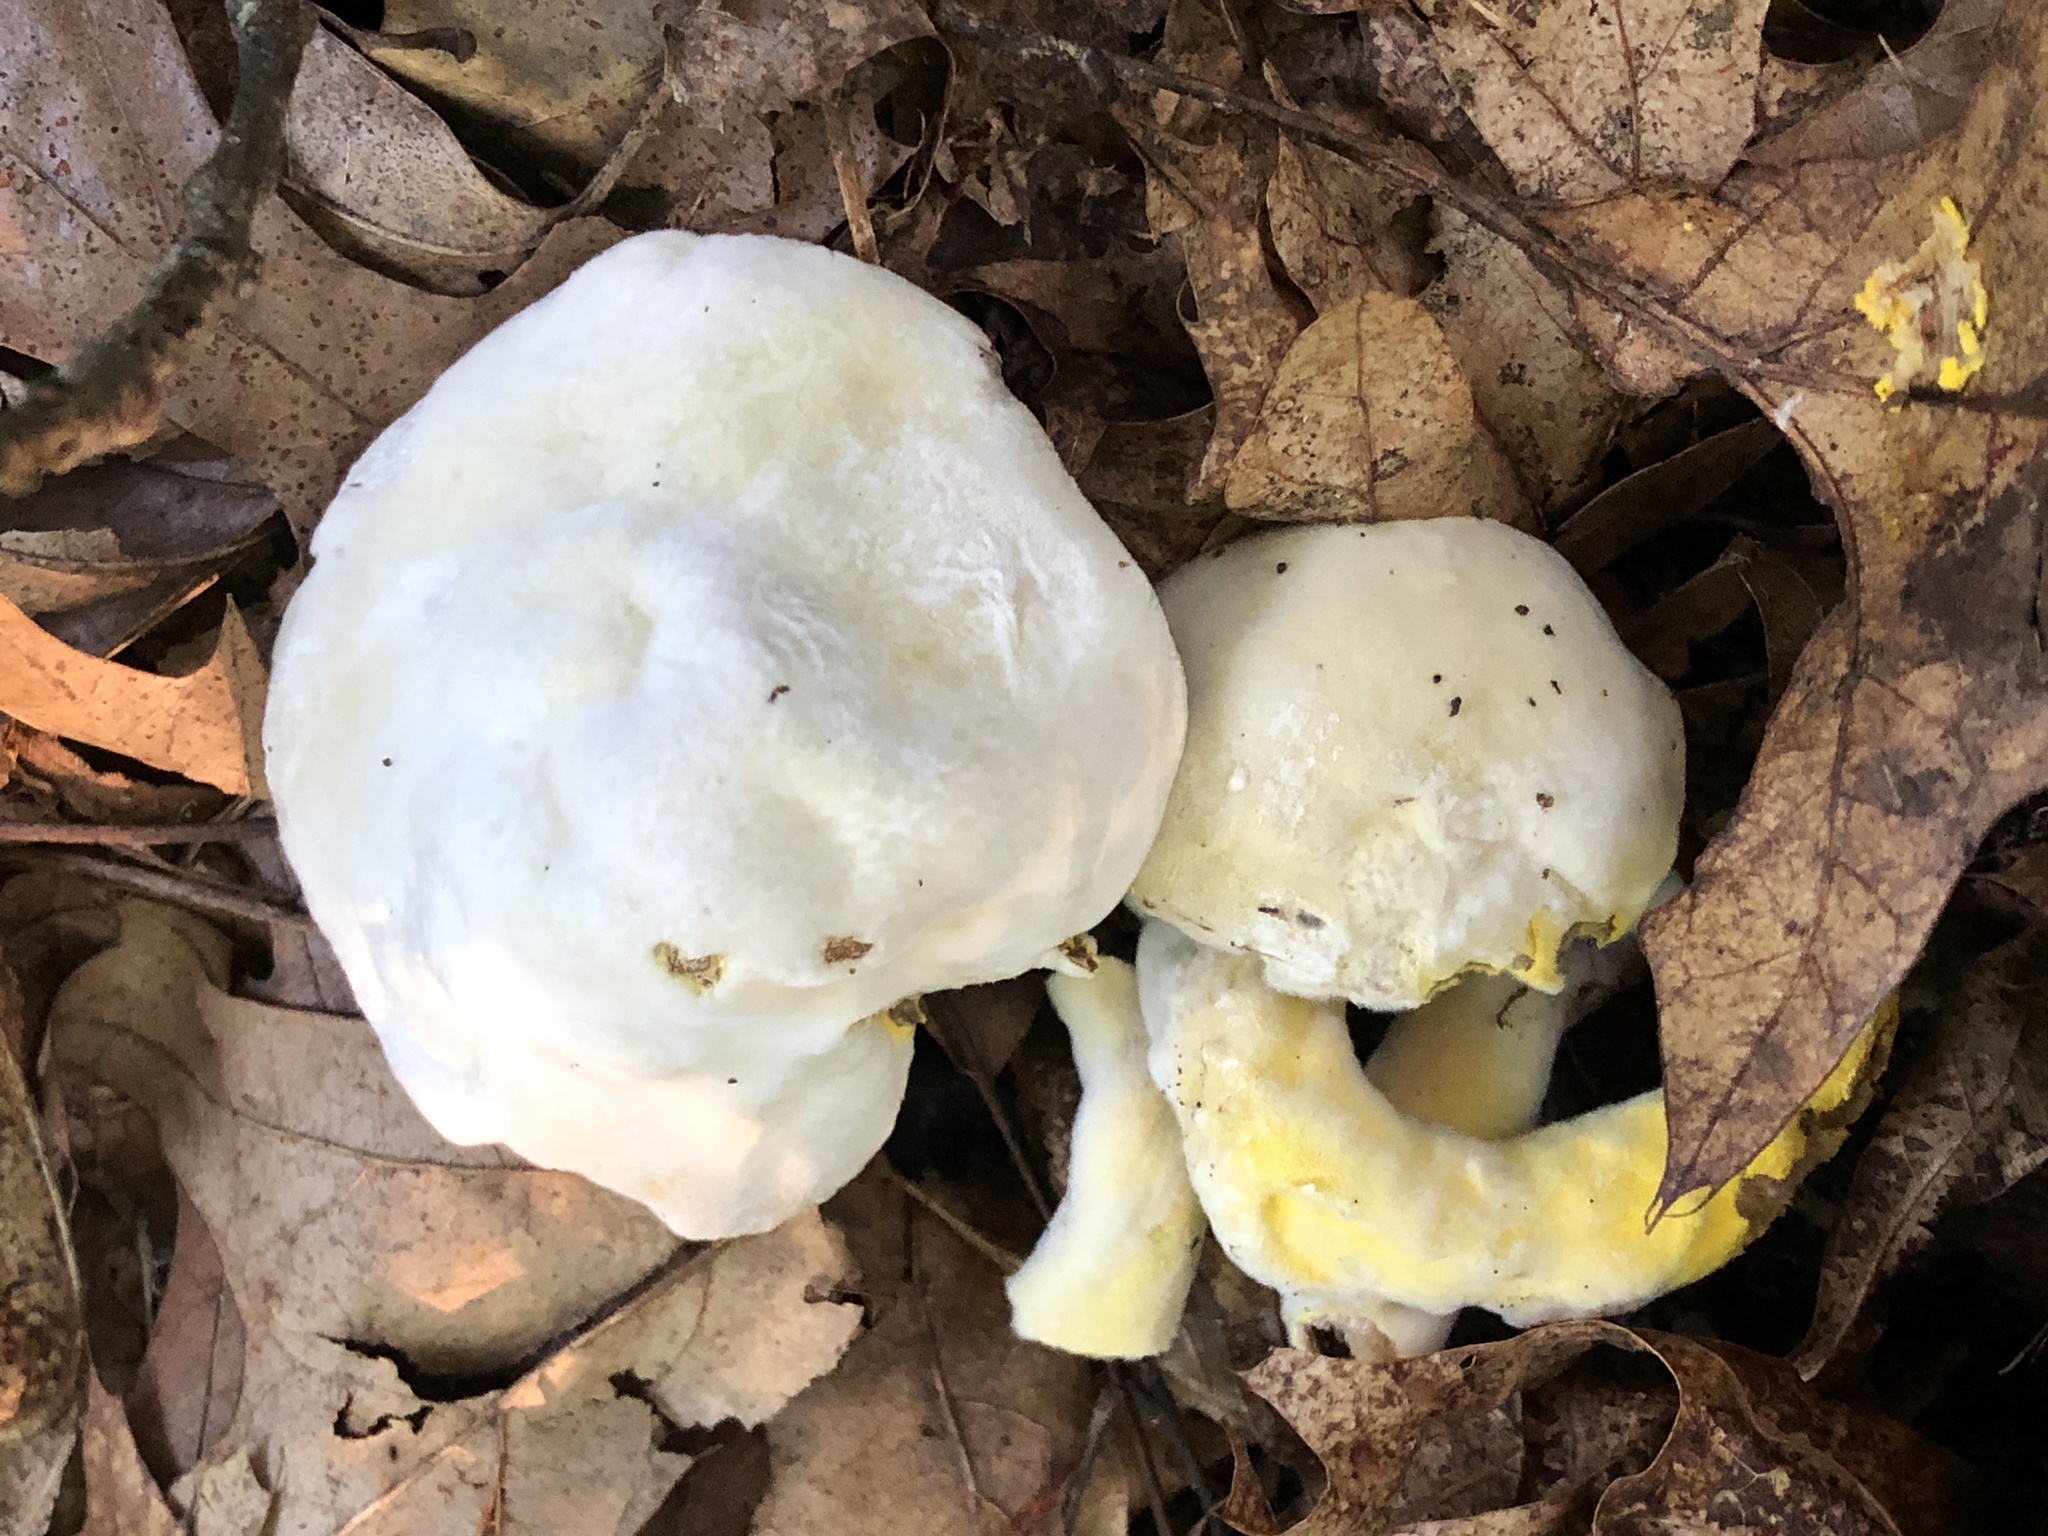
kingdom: Fungi
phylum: Ascomycota
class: Sordariomycetes
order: Hypocreales
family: Hypocreaceae
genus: Hypomyces
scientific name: Hypomyces chrysospermus
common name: Bolete mould
